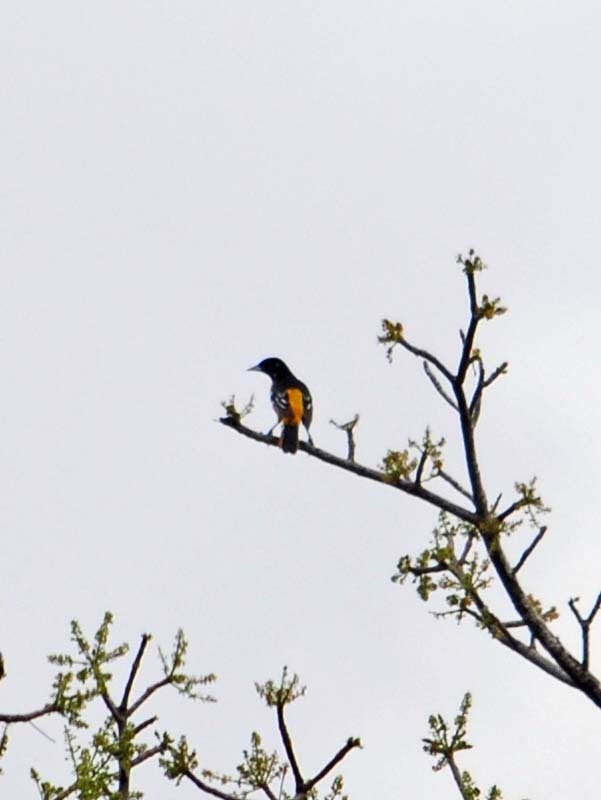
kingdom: Animalia
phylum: Chordata
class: Aves
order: Passeriformes
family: Icteridae
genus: Icterus
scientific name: Icterus galbula
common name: Baltimore oriole
